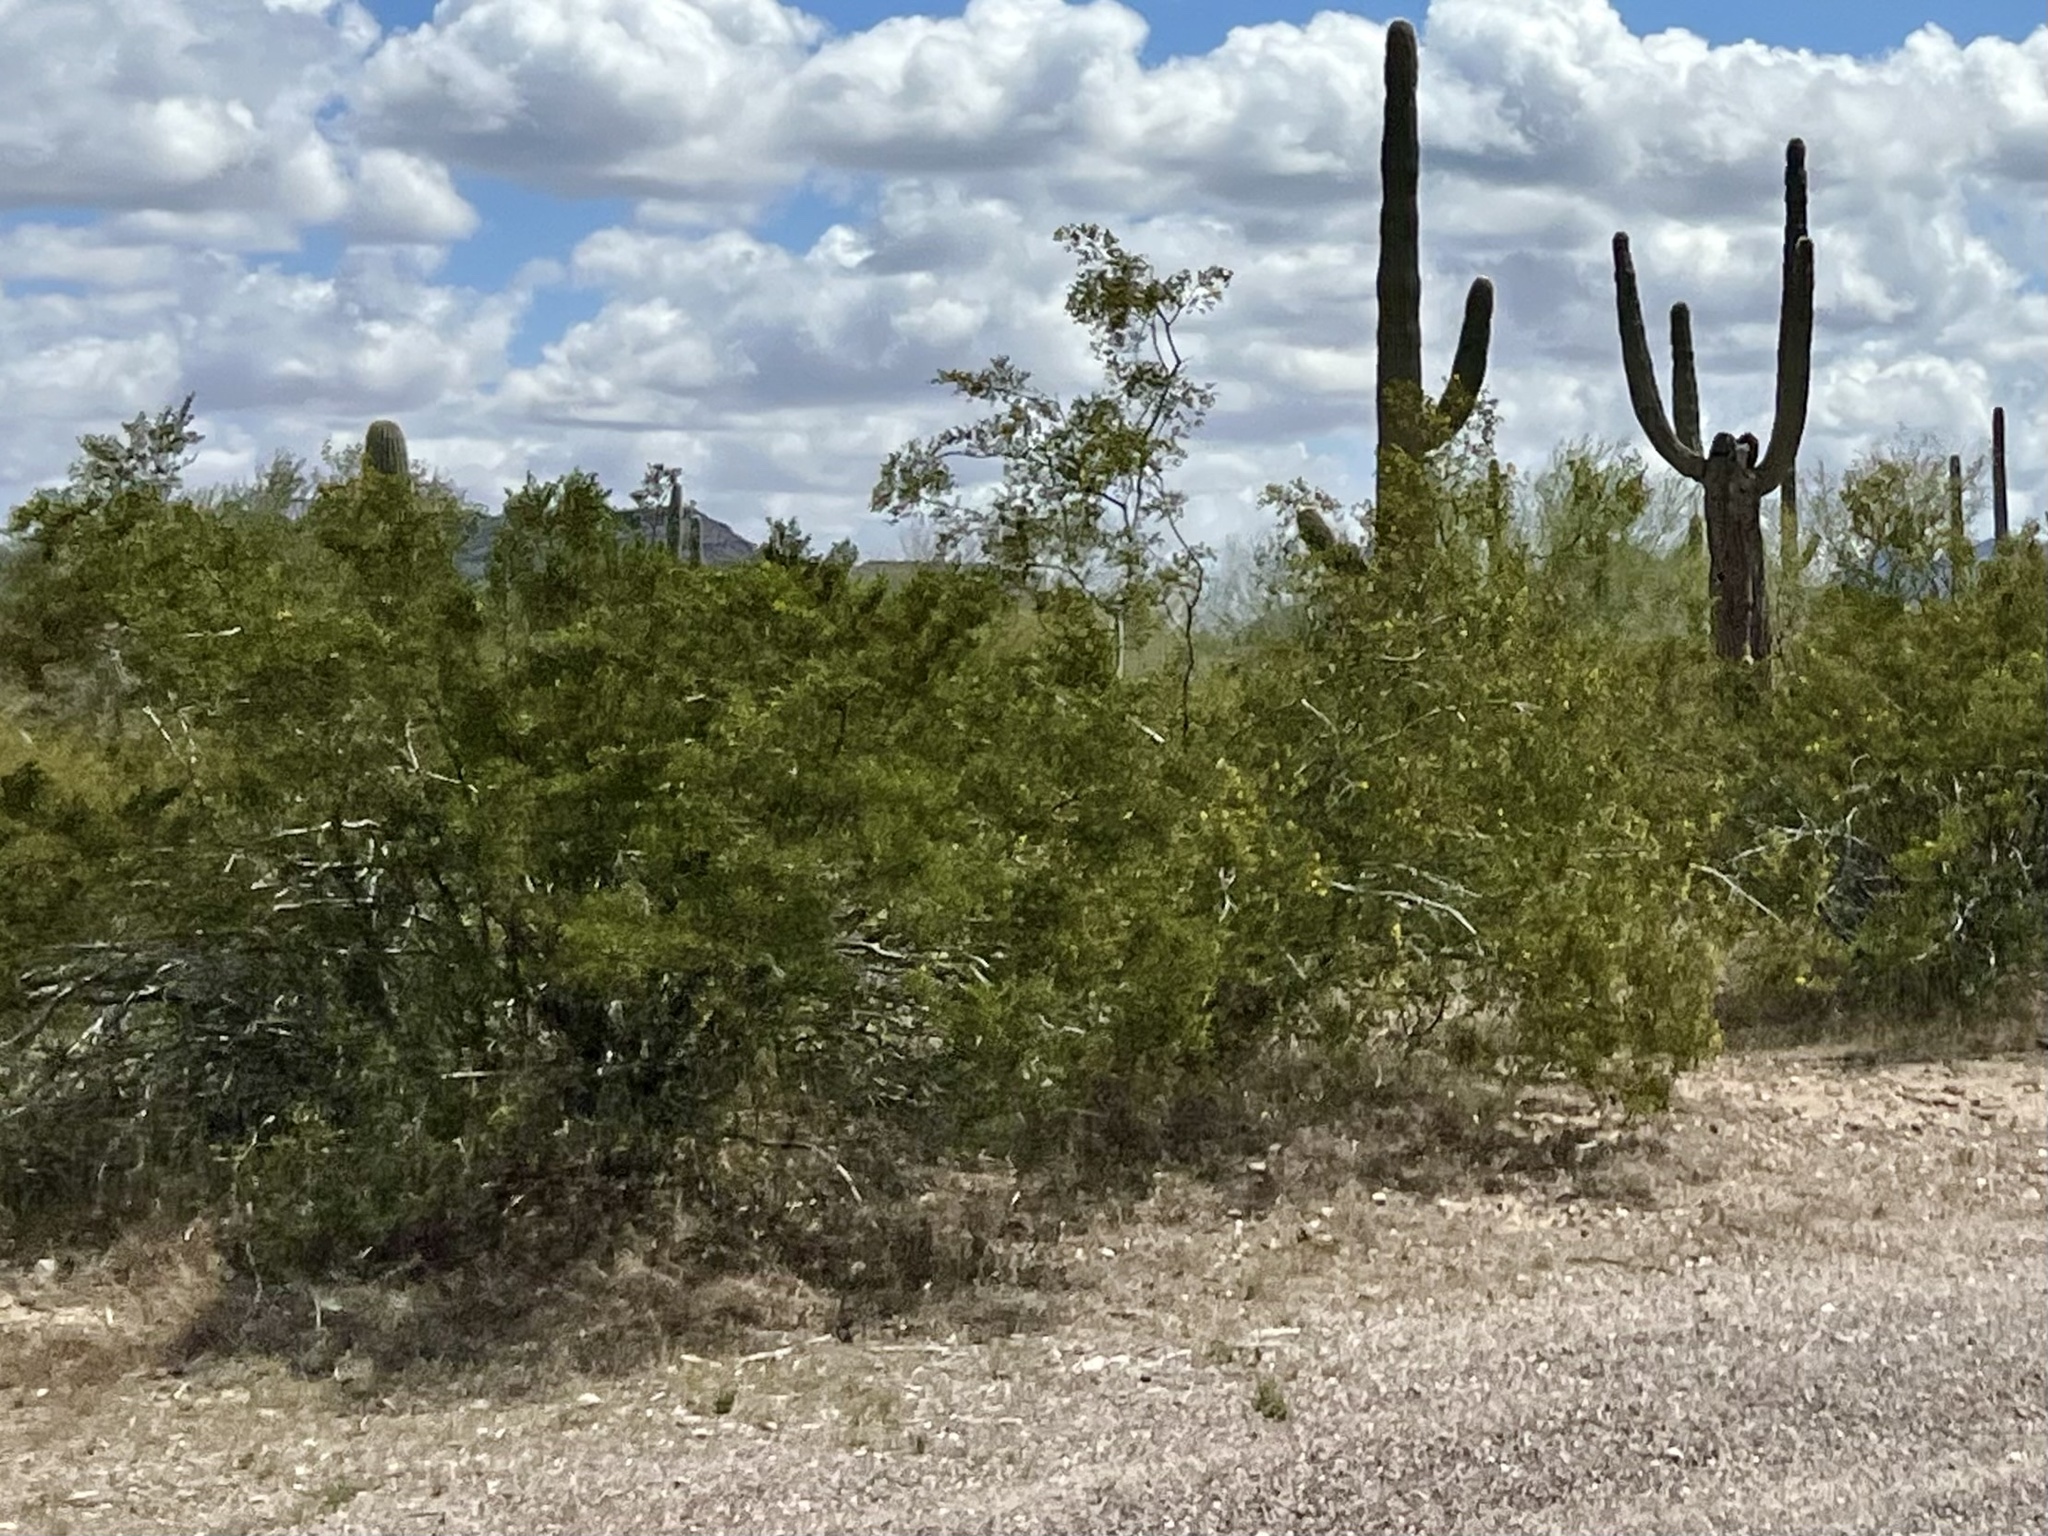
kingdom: Plantae
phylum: Tracheophyta
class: Magnoliopsida
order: Zygophyllales
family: Zygophyllaceae
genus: Larrea
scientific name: Larrea tridentata
